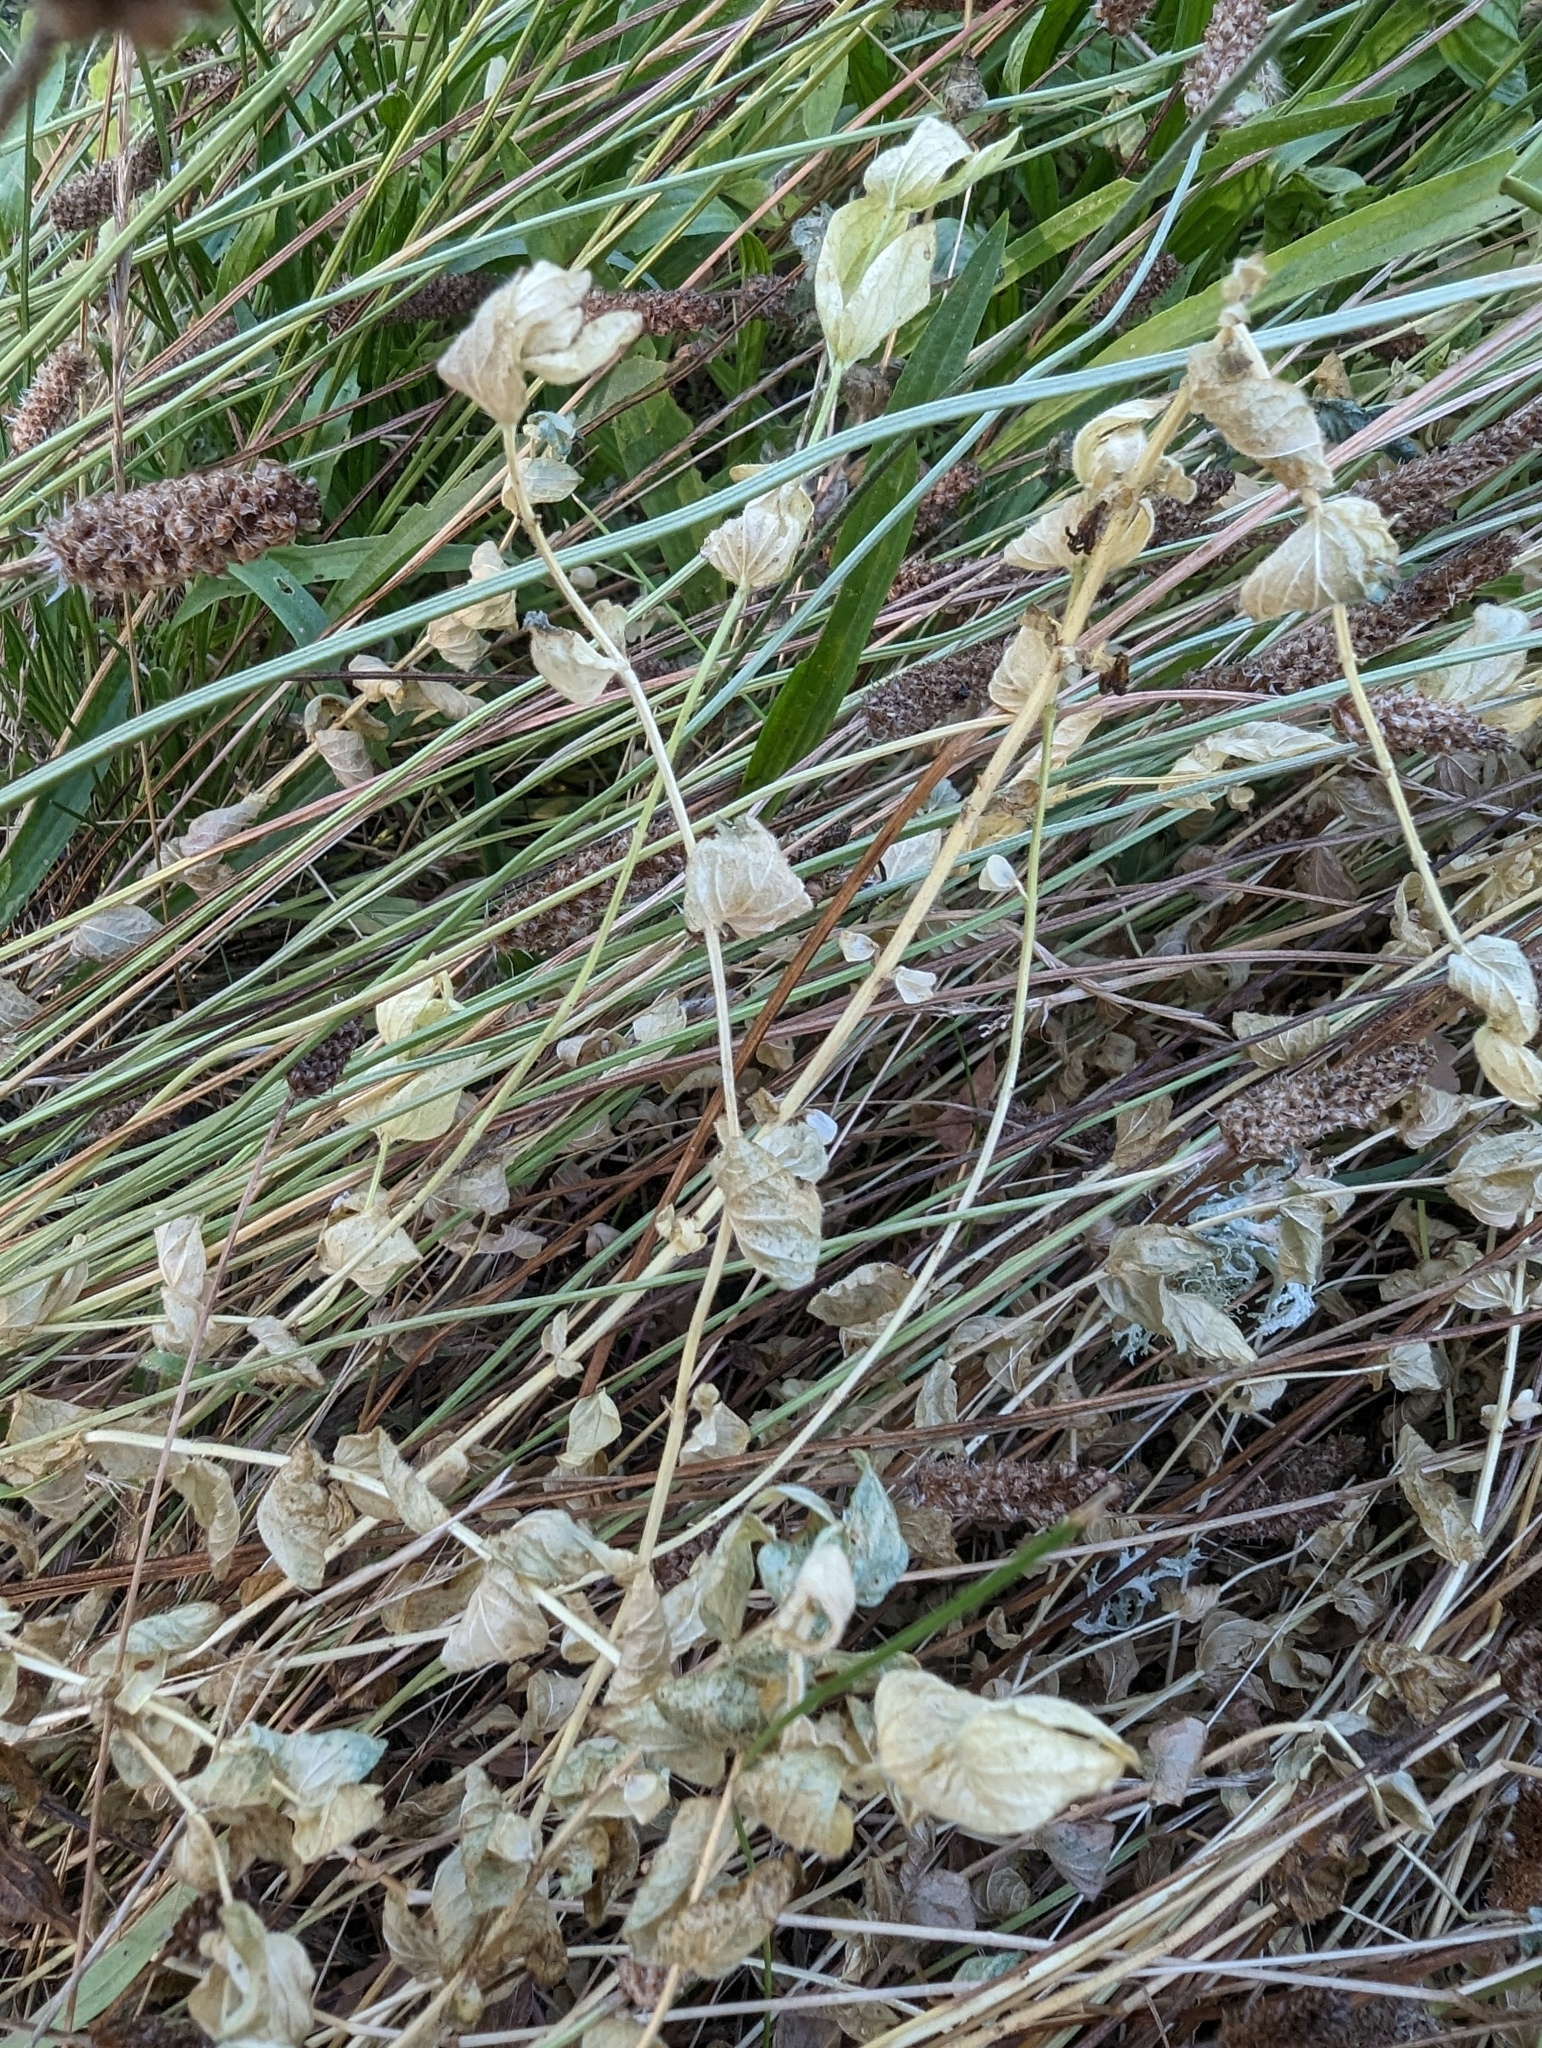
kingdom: Plantae
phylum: Tracheophyta
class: Magnoliopsida
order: Lamiales
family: Lamiaceae
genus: Scutellaria
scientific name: Scutellaria bolanderi
